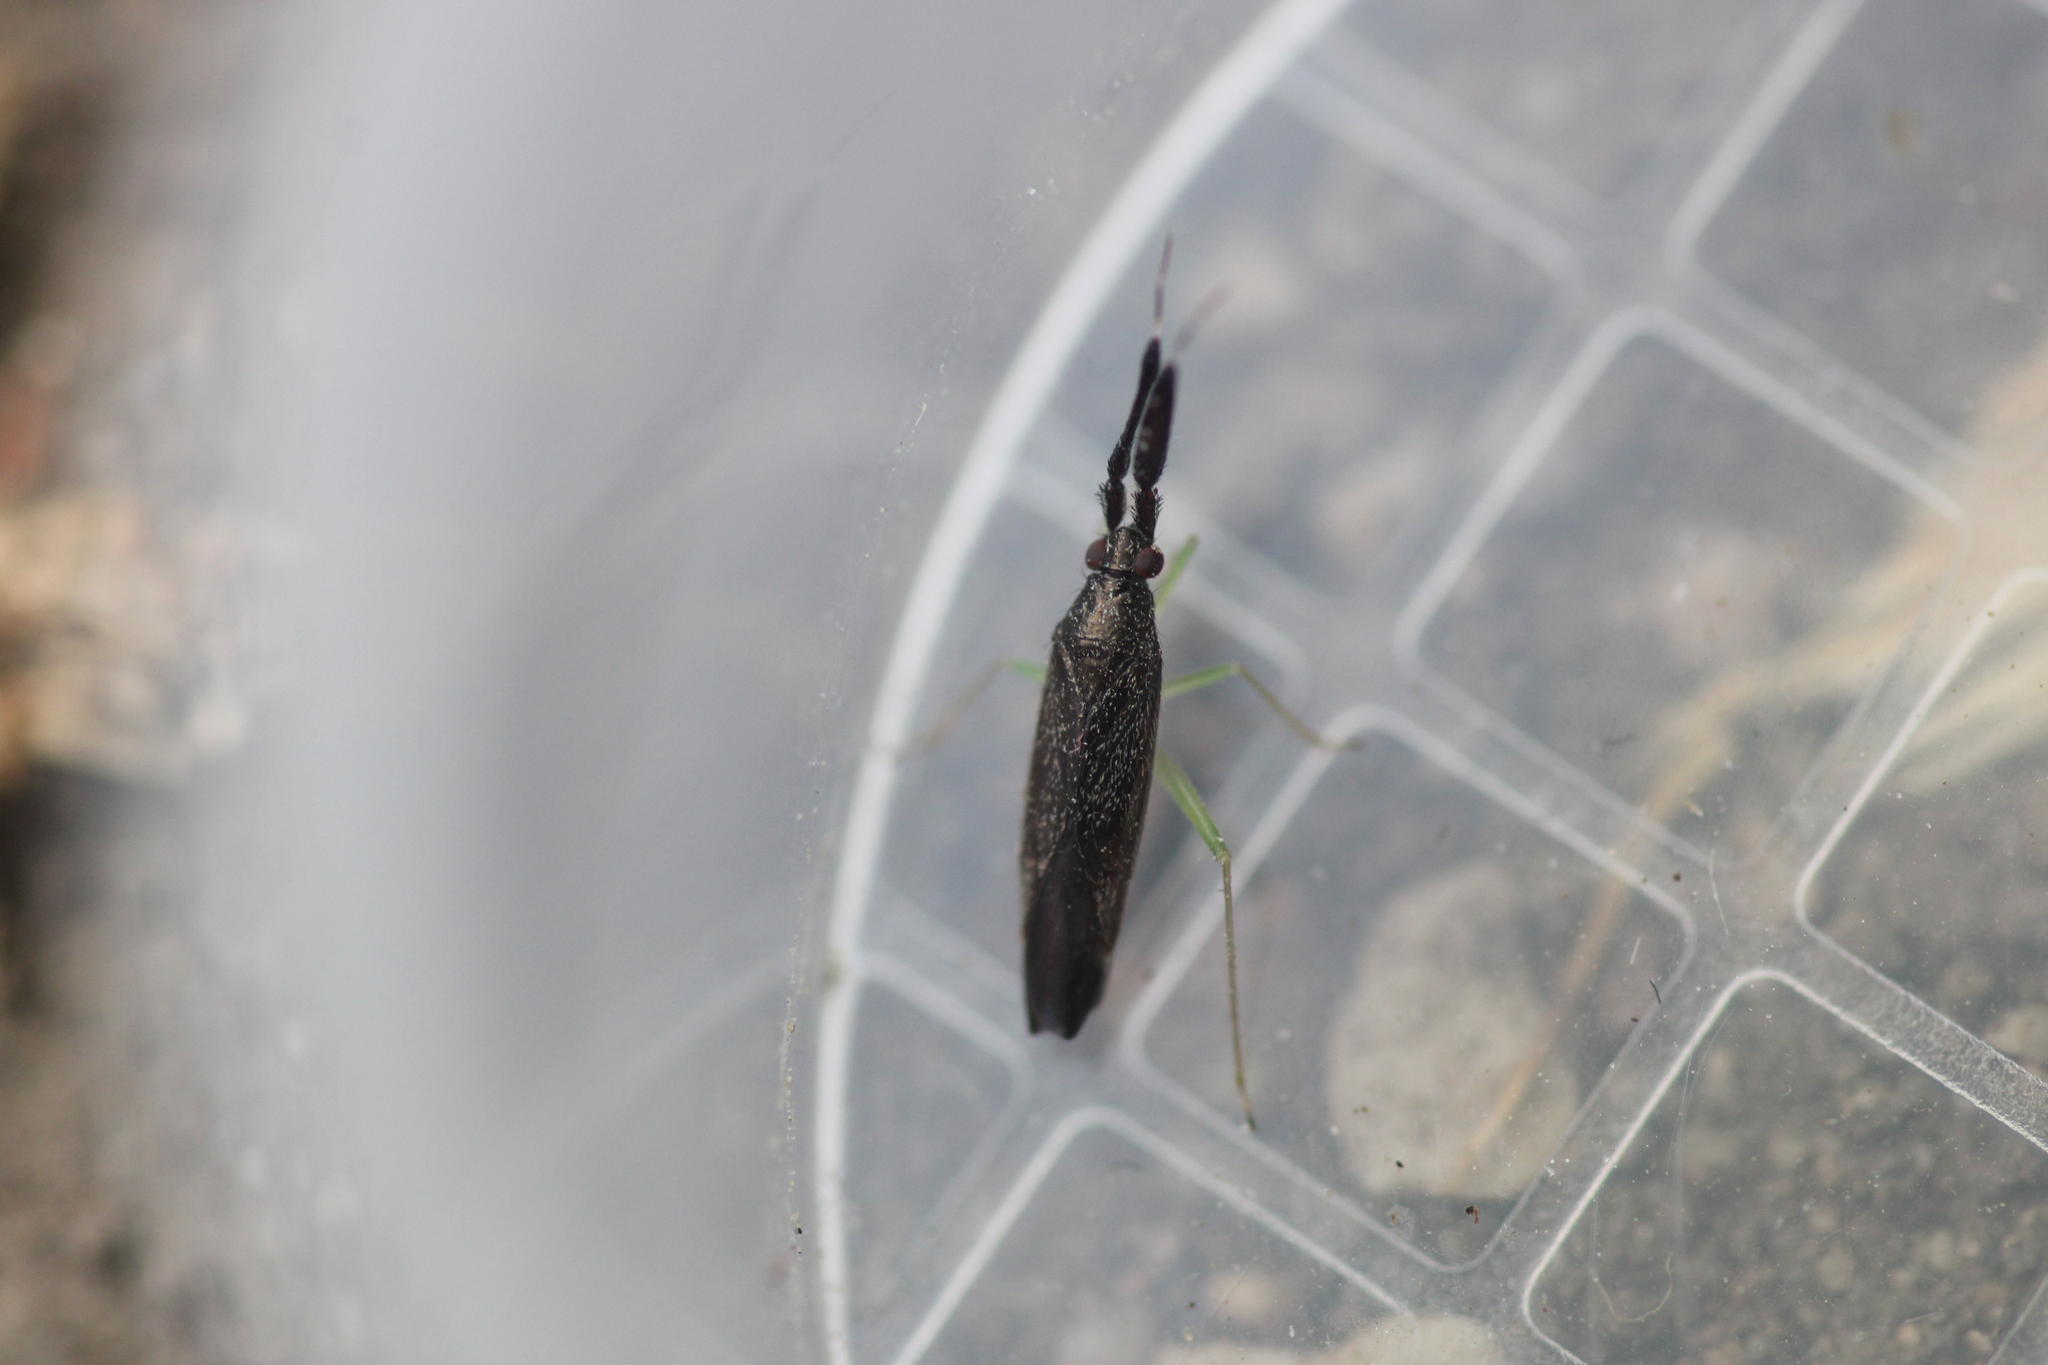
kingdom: Animalia
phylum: Arthropoda
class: Insecta
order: Hemiptera
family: Miridae
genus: Heterotoma
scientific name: Heterotoma planicornis
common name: Plant bug
